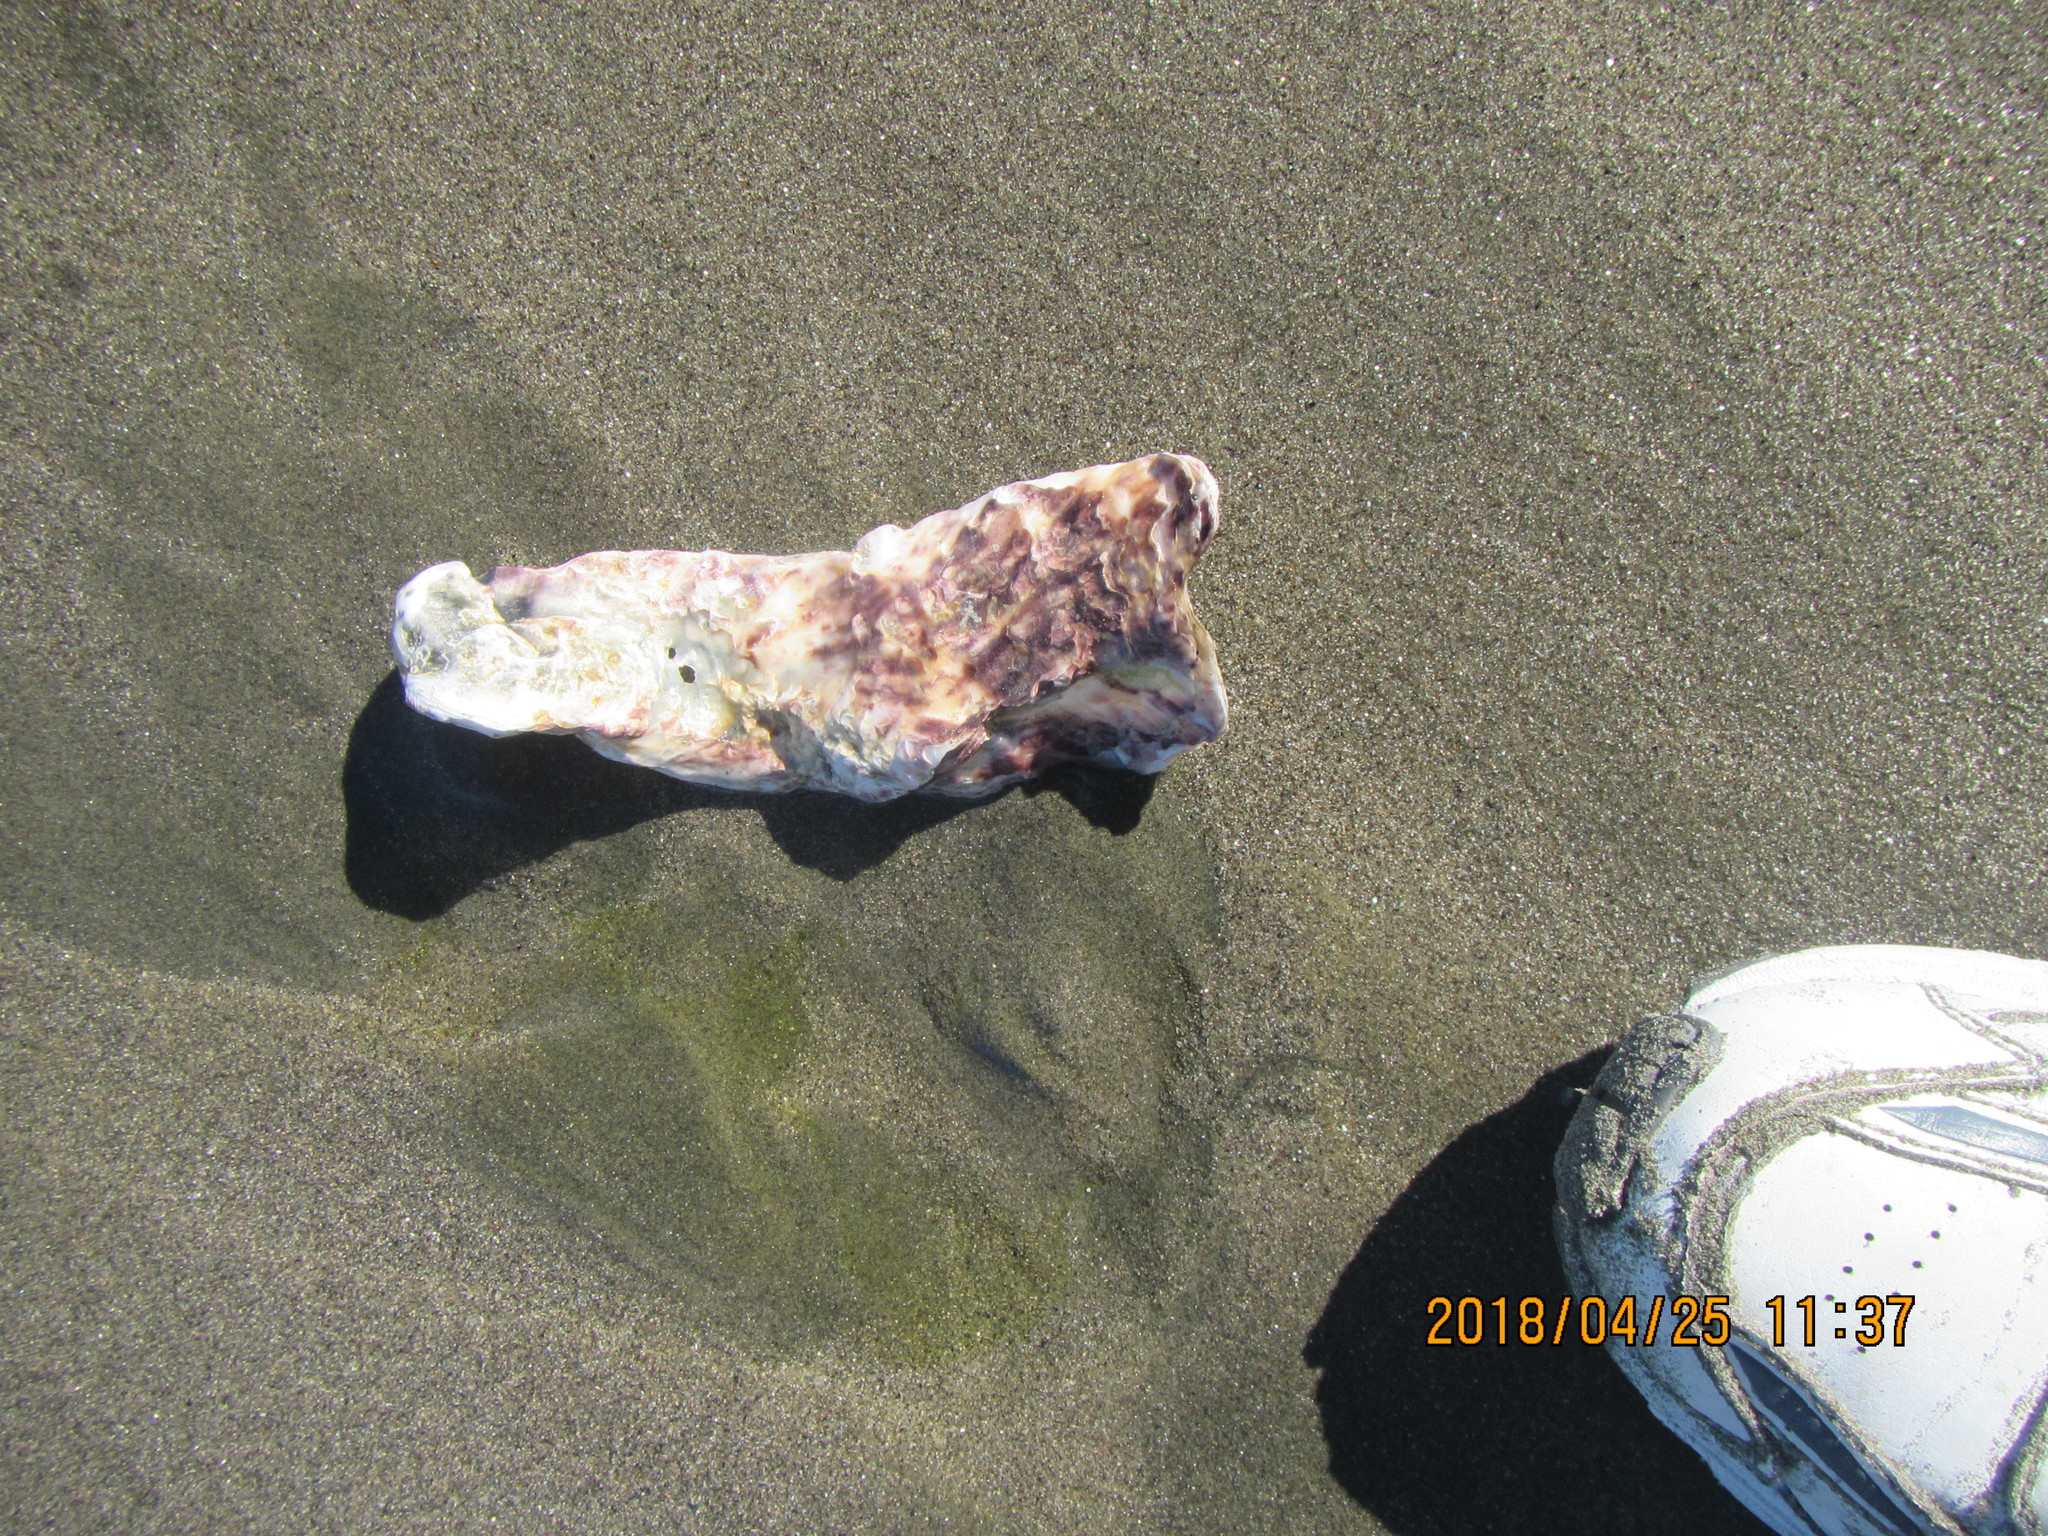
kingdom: Animalia
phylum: Mollusca
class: Bivalvia
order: Ostreida
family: Ostreidae
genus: Magallana
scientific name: Magallana gigas
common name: Pacific oyster
